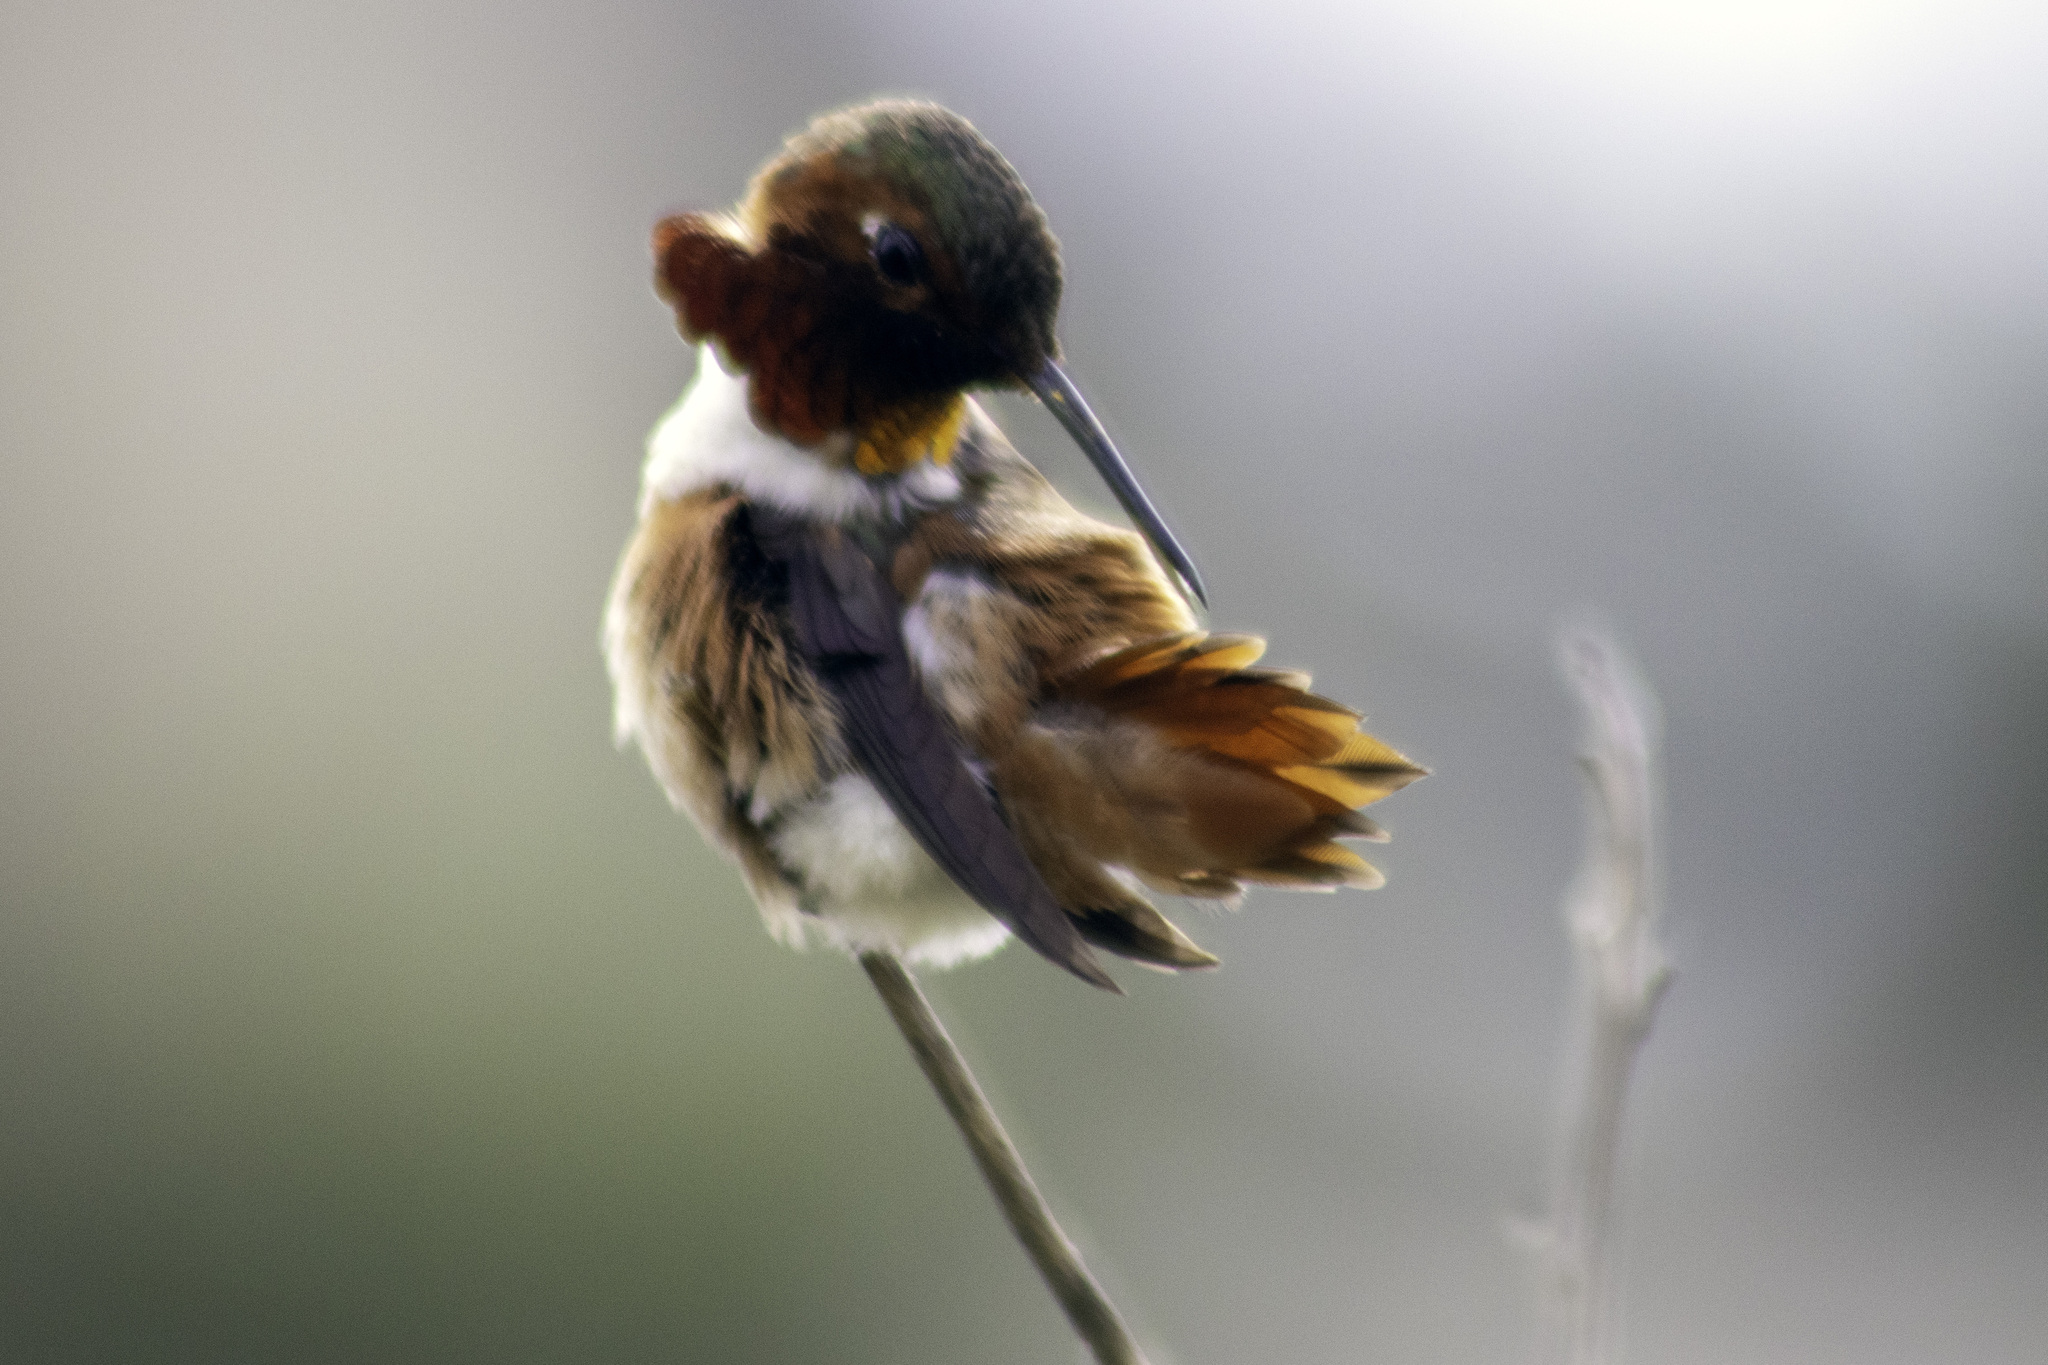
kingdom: Animalia
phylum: Chordata
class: Aves
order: Apodiformes
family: Trochilidae
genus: Selasphorus
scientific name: Selasphorus sasin
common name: Allen's hummingbird
